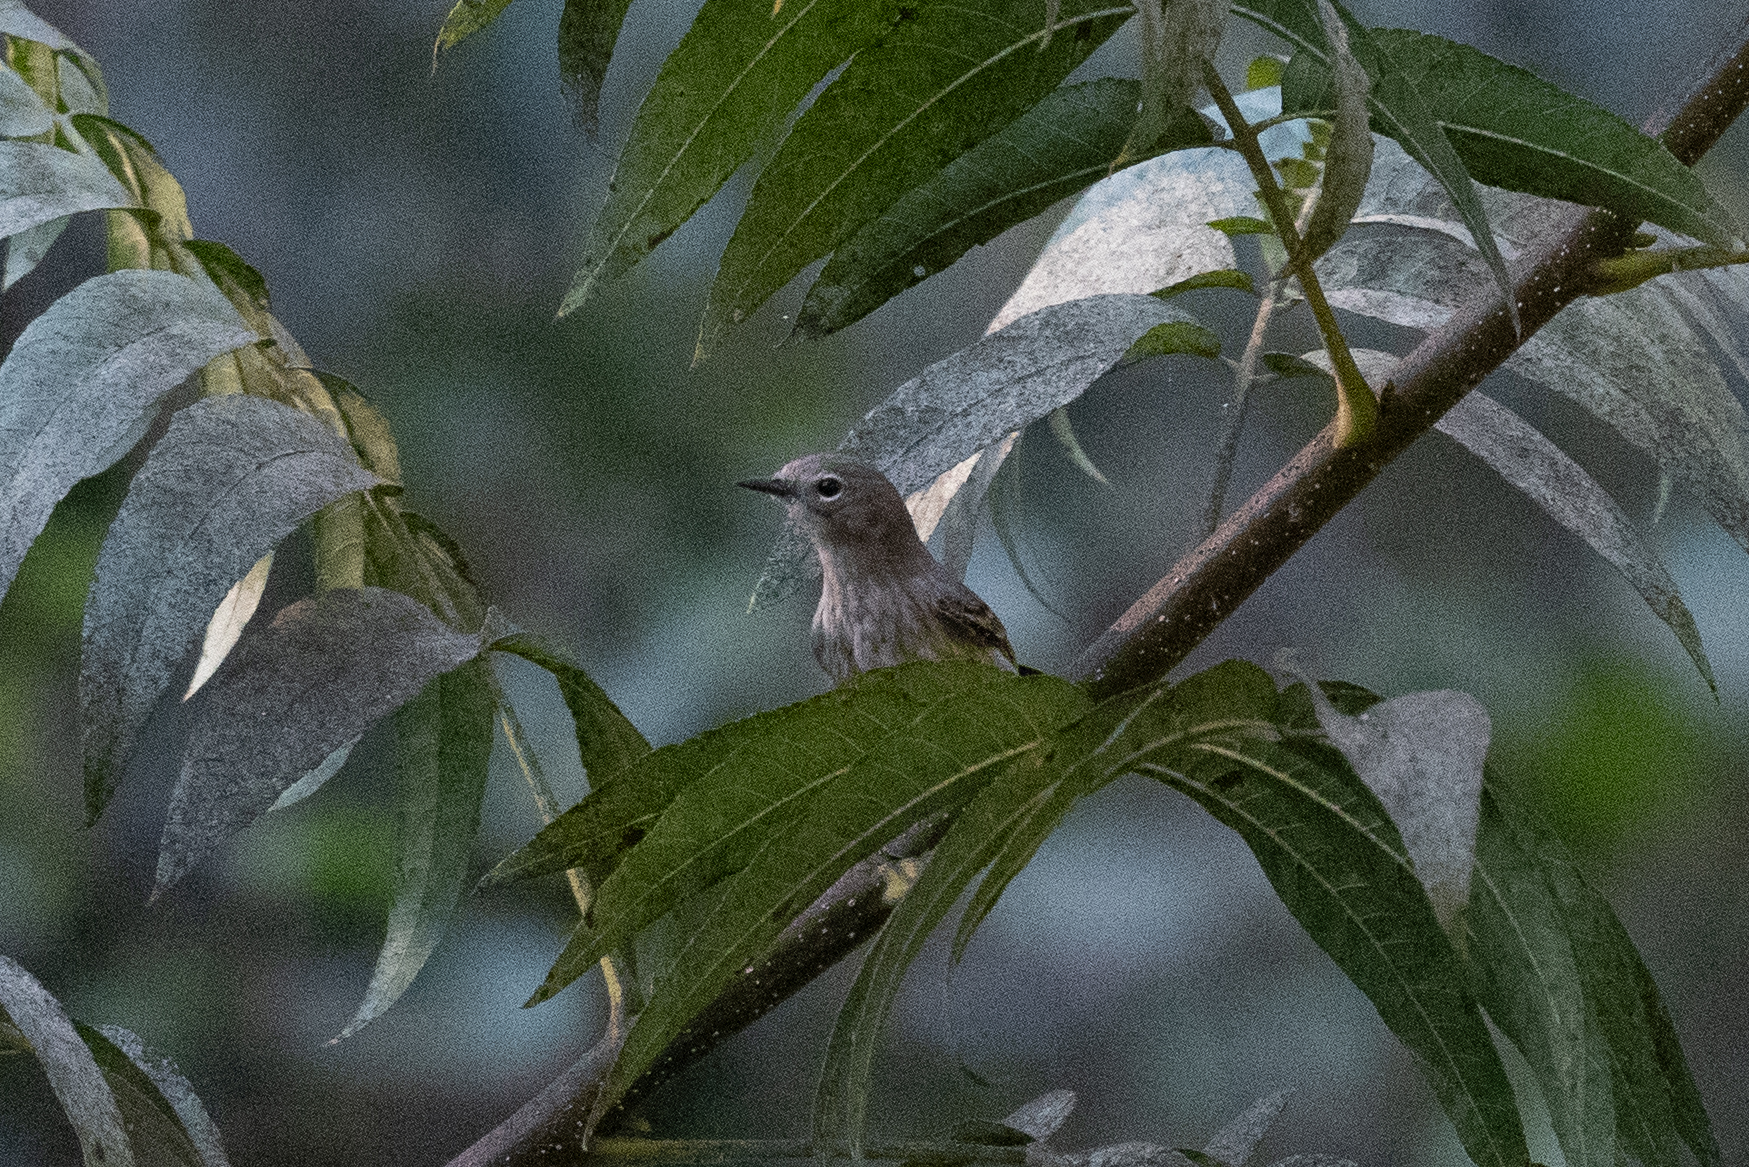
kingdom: Animalia
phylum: Chordata
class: Aves
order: Passeriformes
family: Parulidae
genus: Setophaga
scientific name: Setophaga coronata
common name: Myrtle warbler
